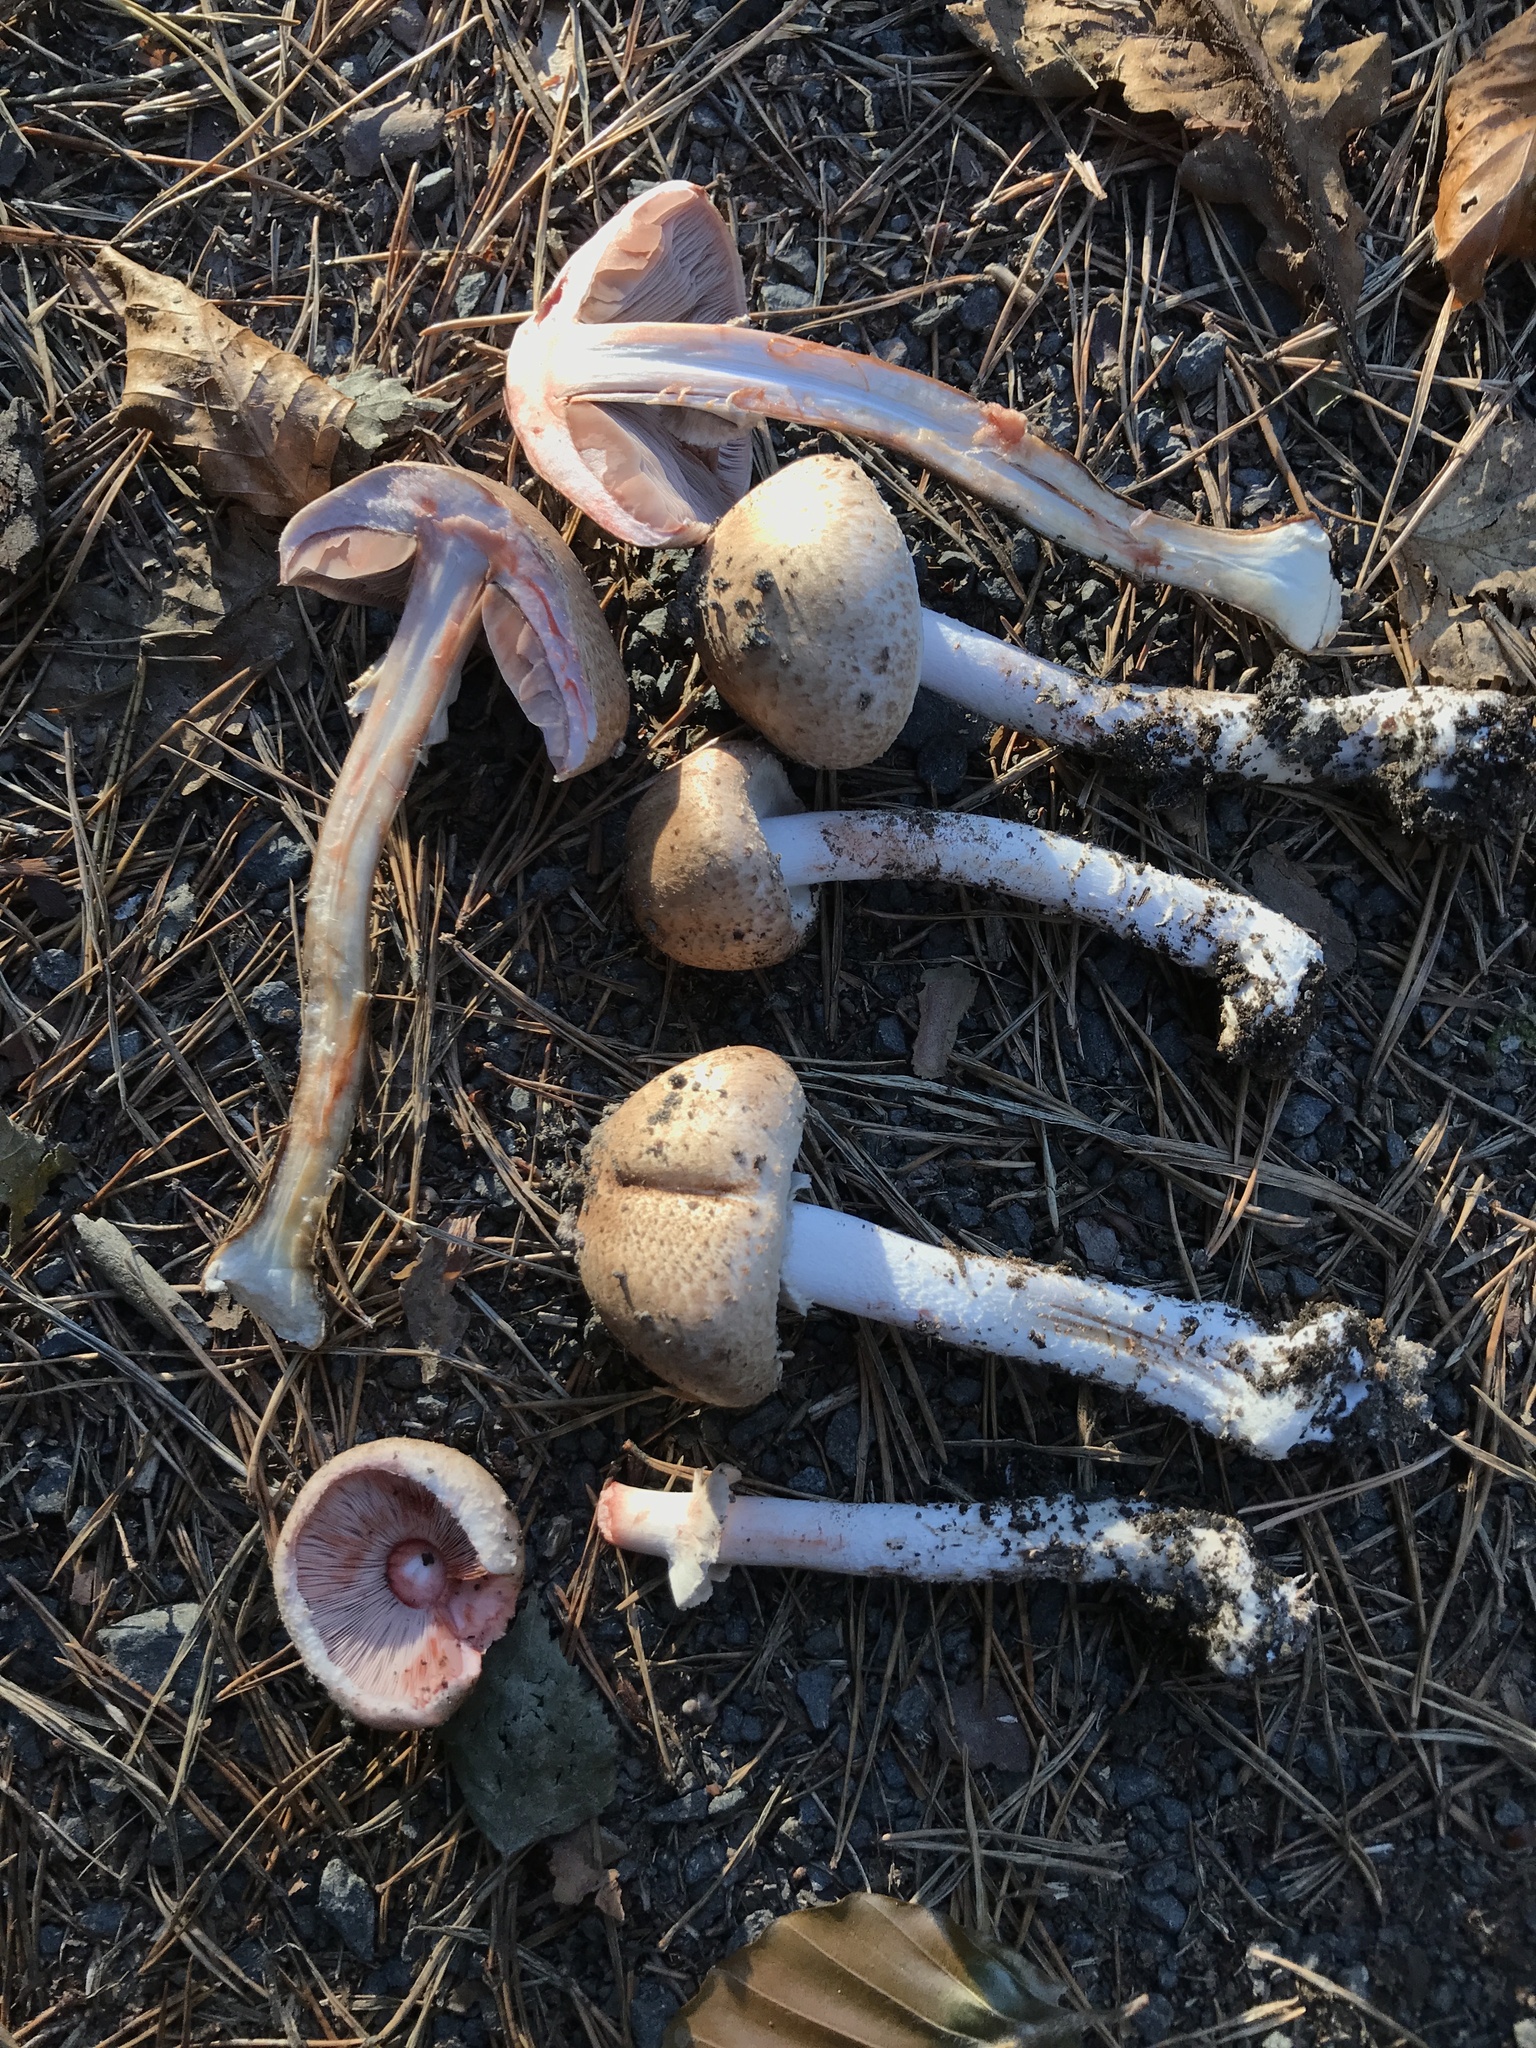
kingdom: Fungi
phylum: Basidiomycota
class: Agaricomycetes
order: Agaricales
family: Agaricaceae
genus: Agaricus
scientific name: Agaricus sylvaticus
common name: Blushing wood mushroom
